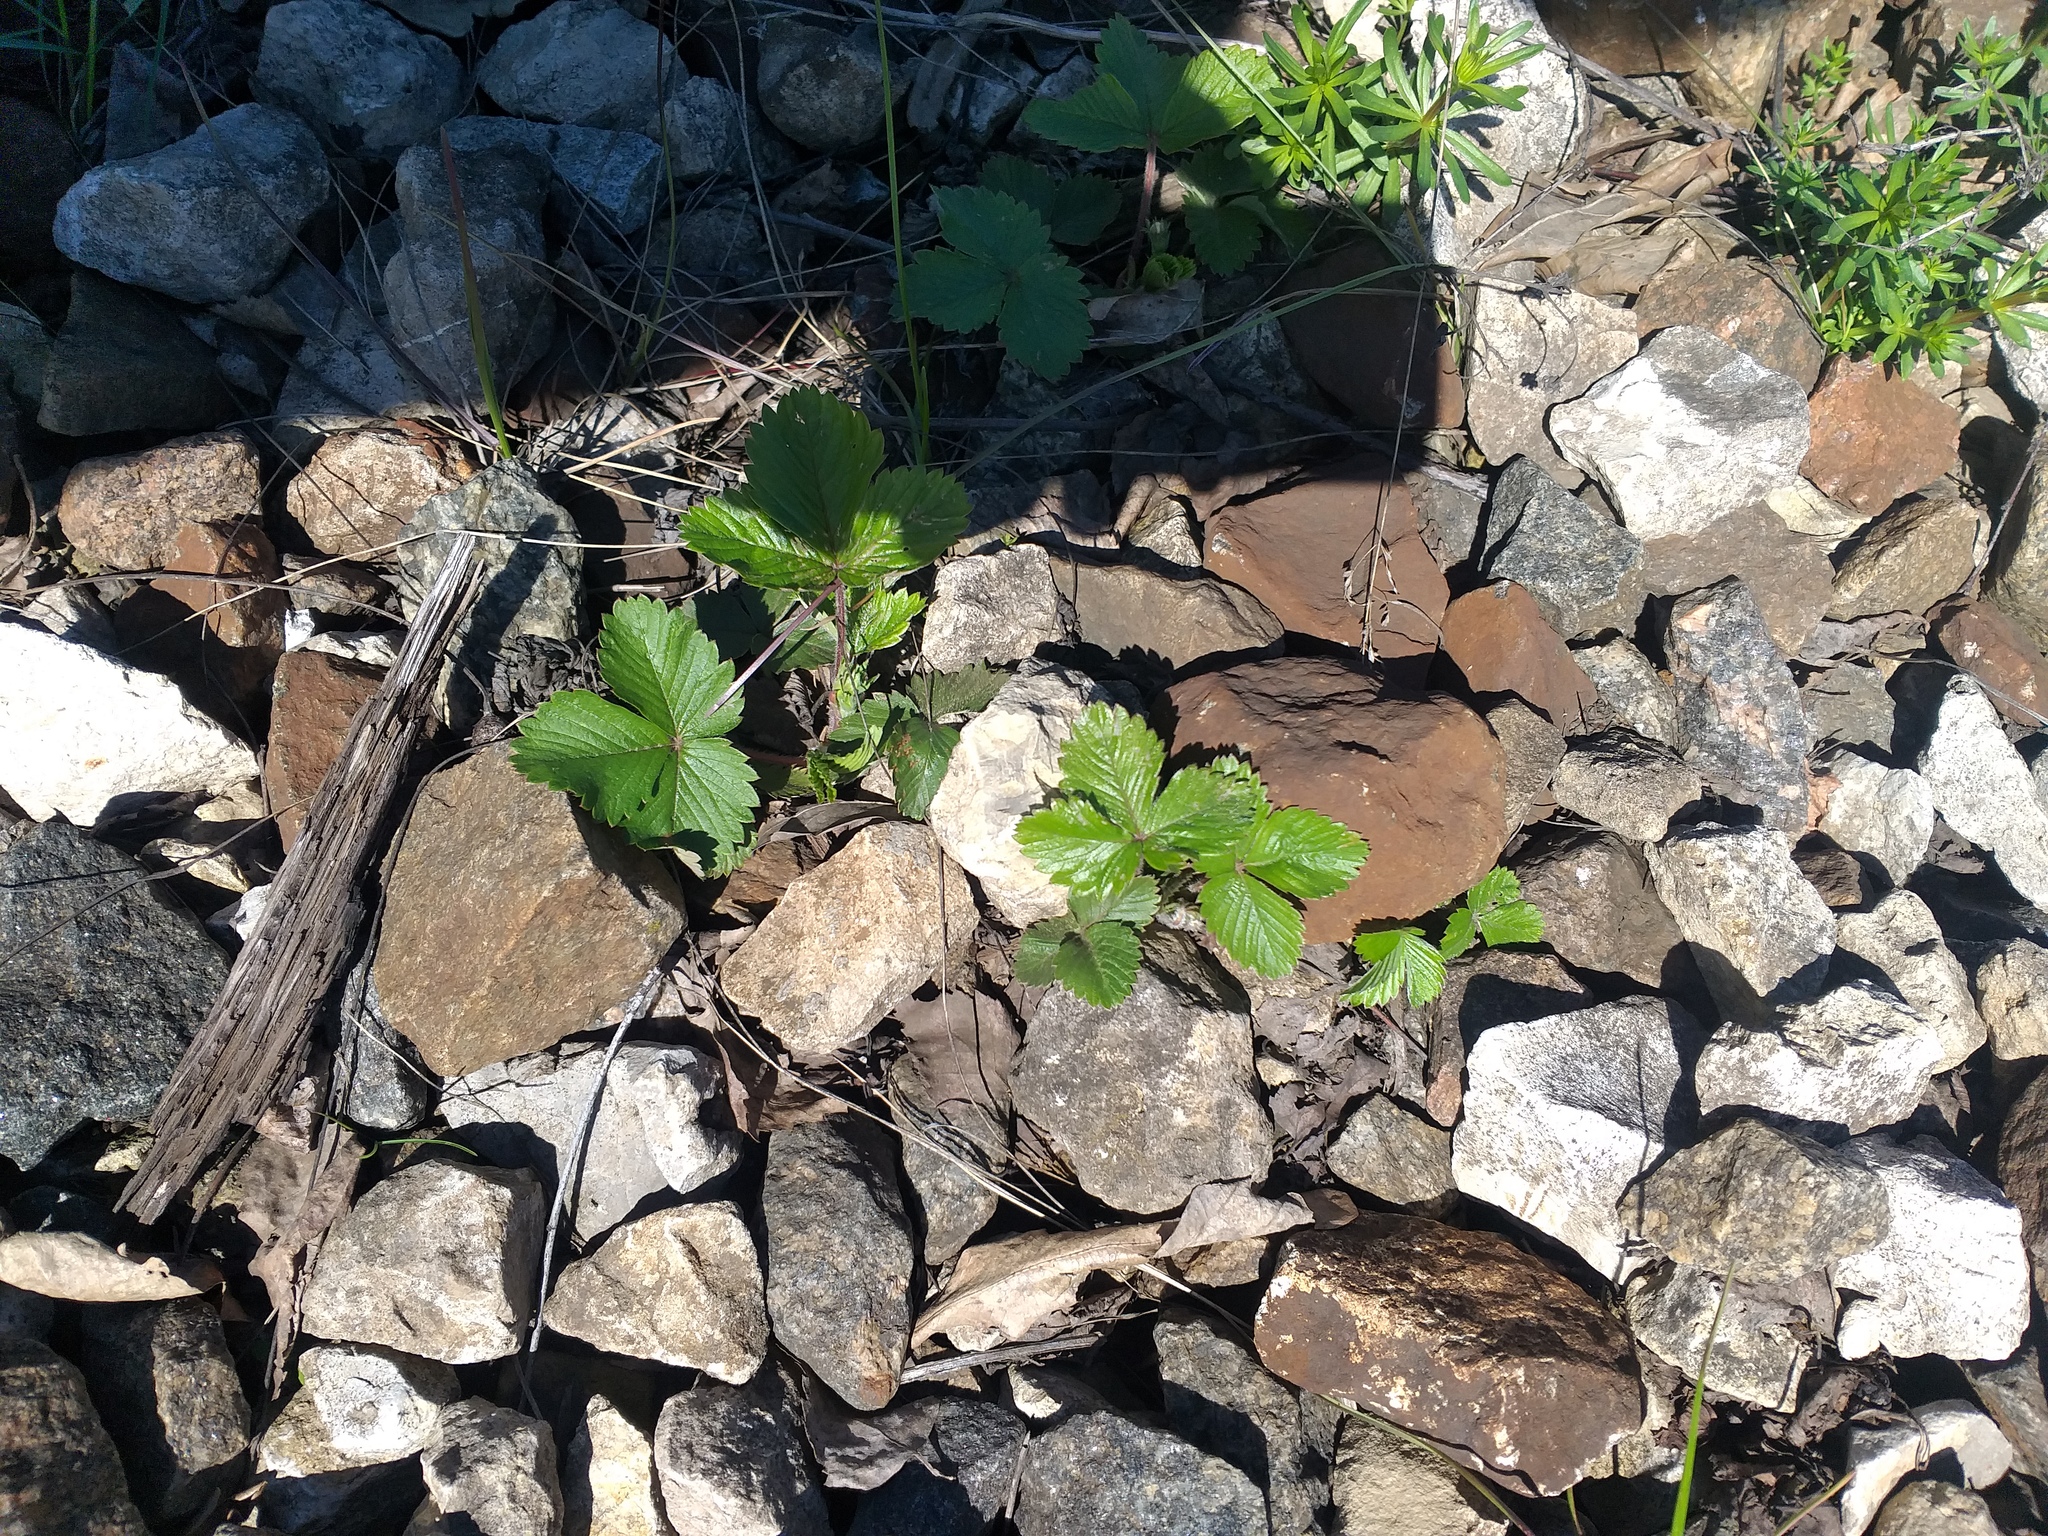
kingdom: Plantae
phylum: Tracheophyta
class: Magnoliopsida
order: Rosales
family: Rosaceae
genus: Fragaria
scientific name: Fragaria vesca
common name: Wild strawberry
